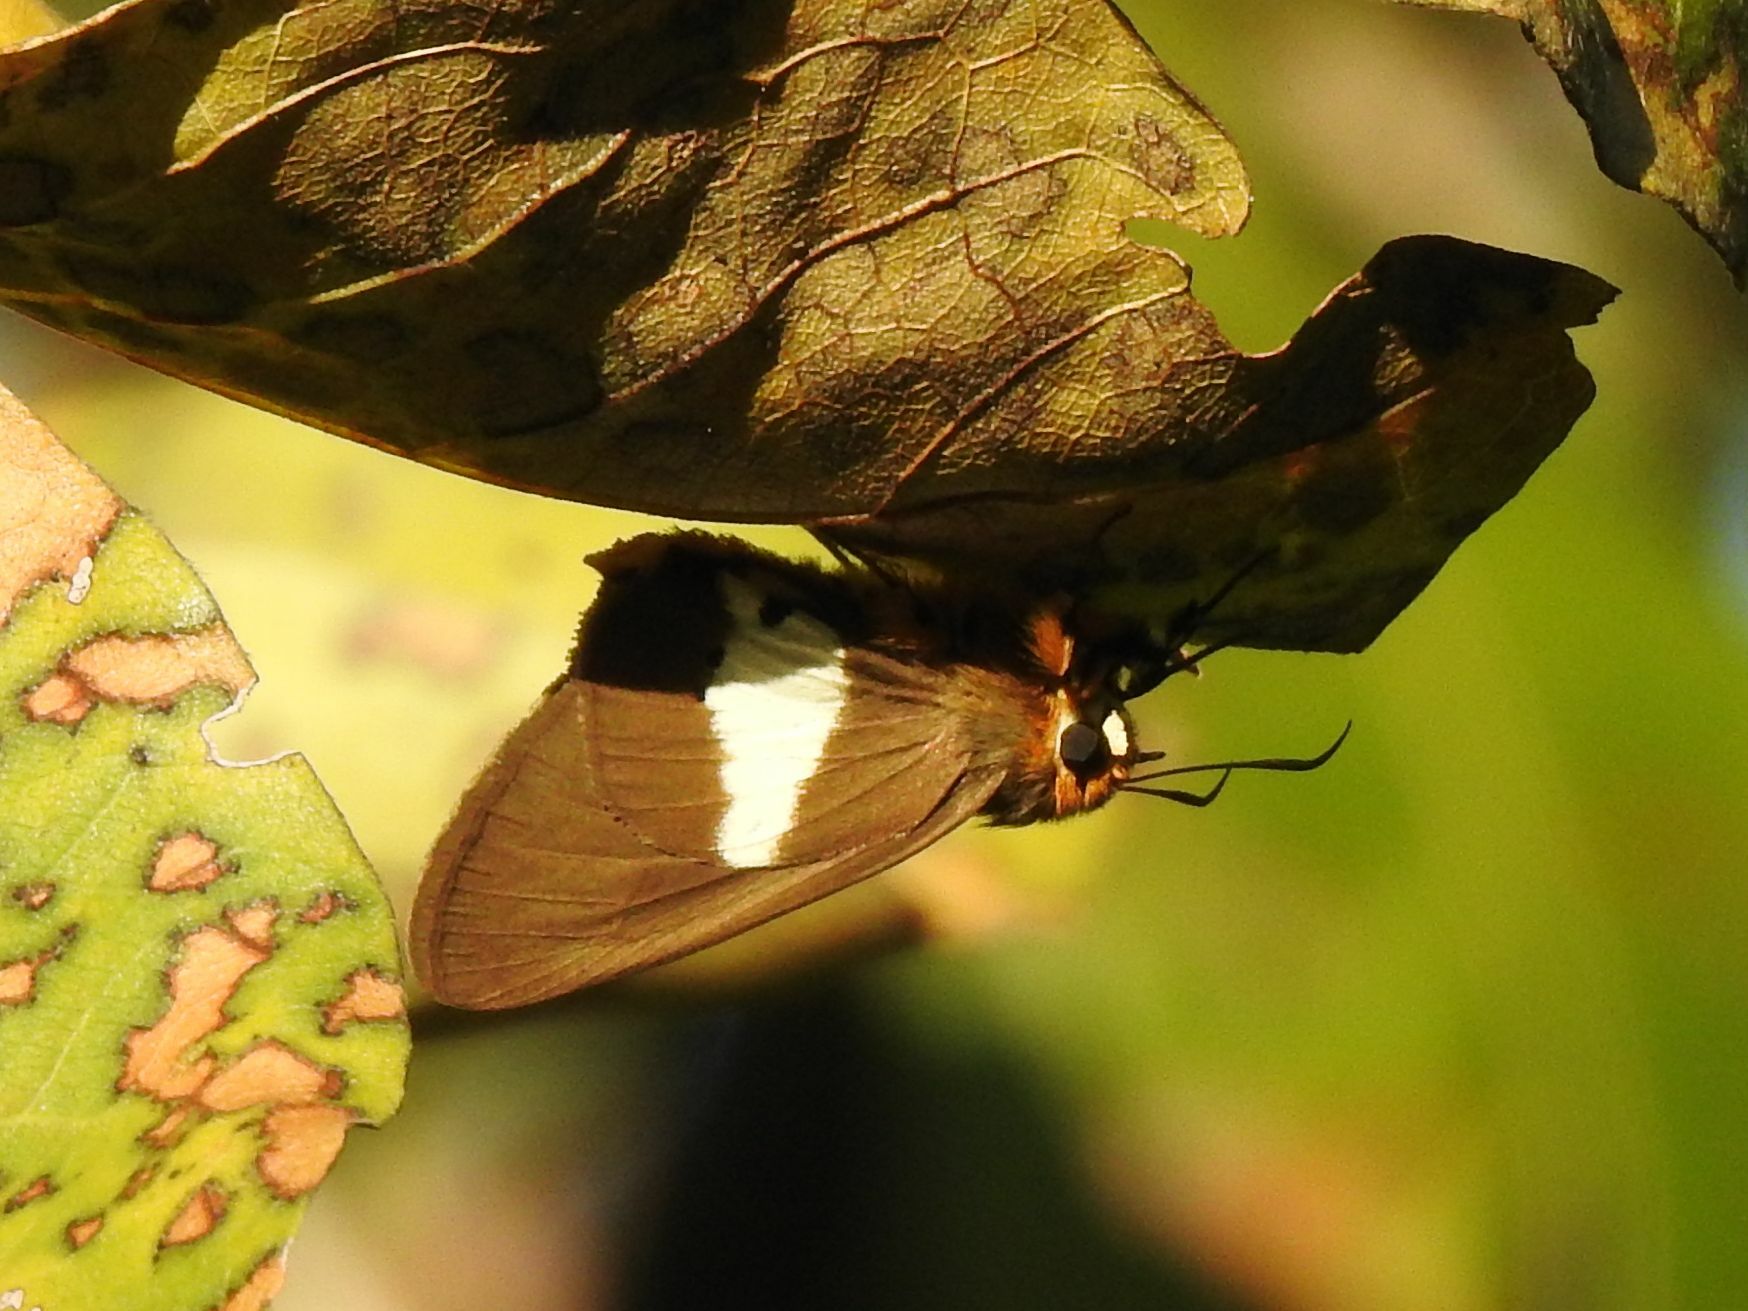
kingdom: Animalia
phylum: Arthropoda
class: Insecta
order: Lepidoptera
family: Hesperiidae
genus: Coeliades
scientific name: Coeliades pisistratus
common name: Two-pip policeman
